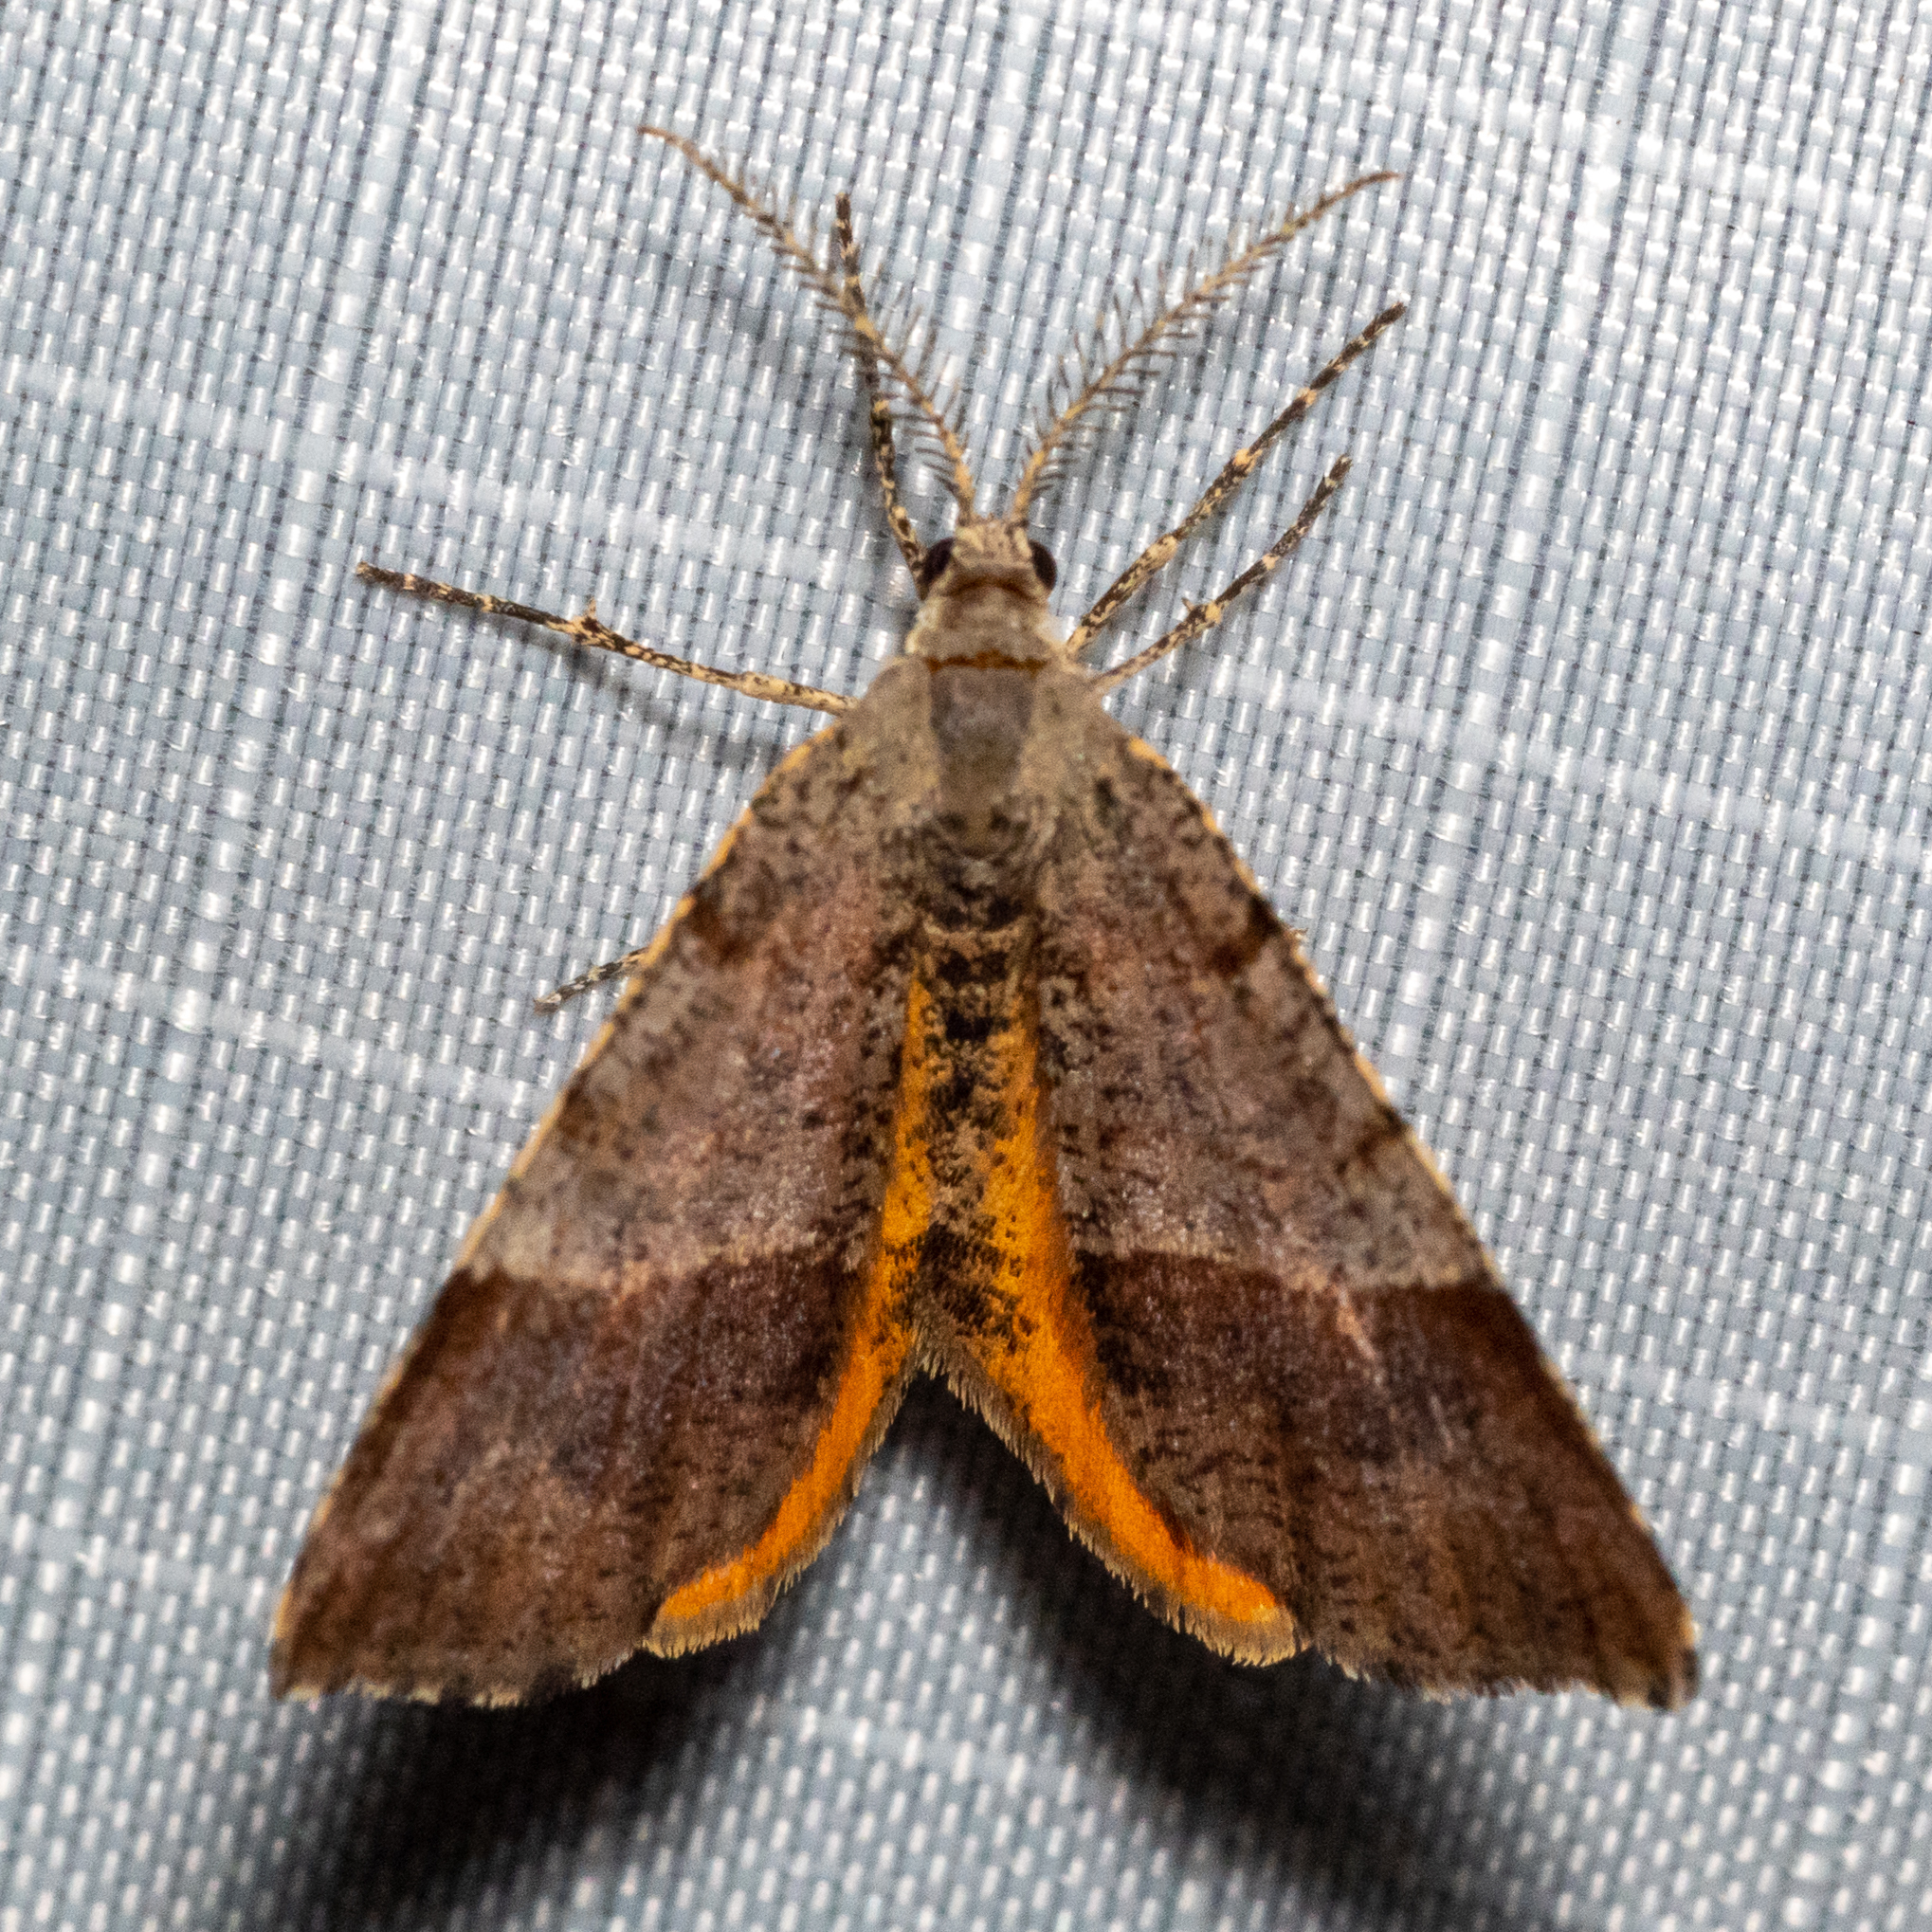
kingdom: Animalia
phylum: Arthropoda
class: Insecta
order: Lepidoptera
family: Geometridae
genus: Mellilla
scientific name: Mellilla xanthometata
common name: Orange wing moth
